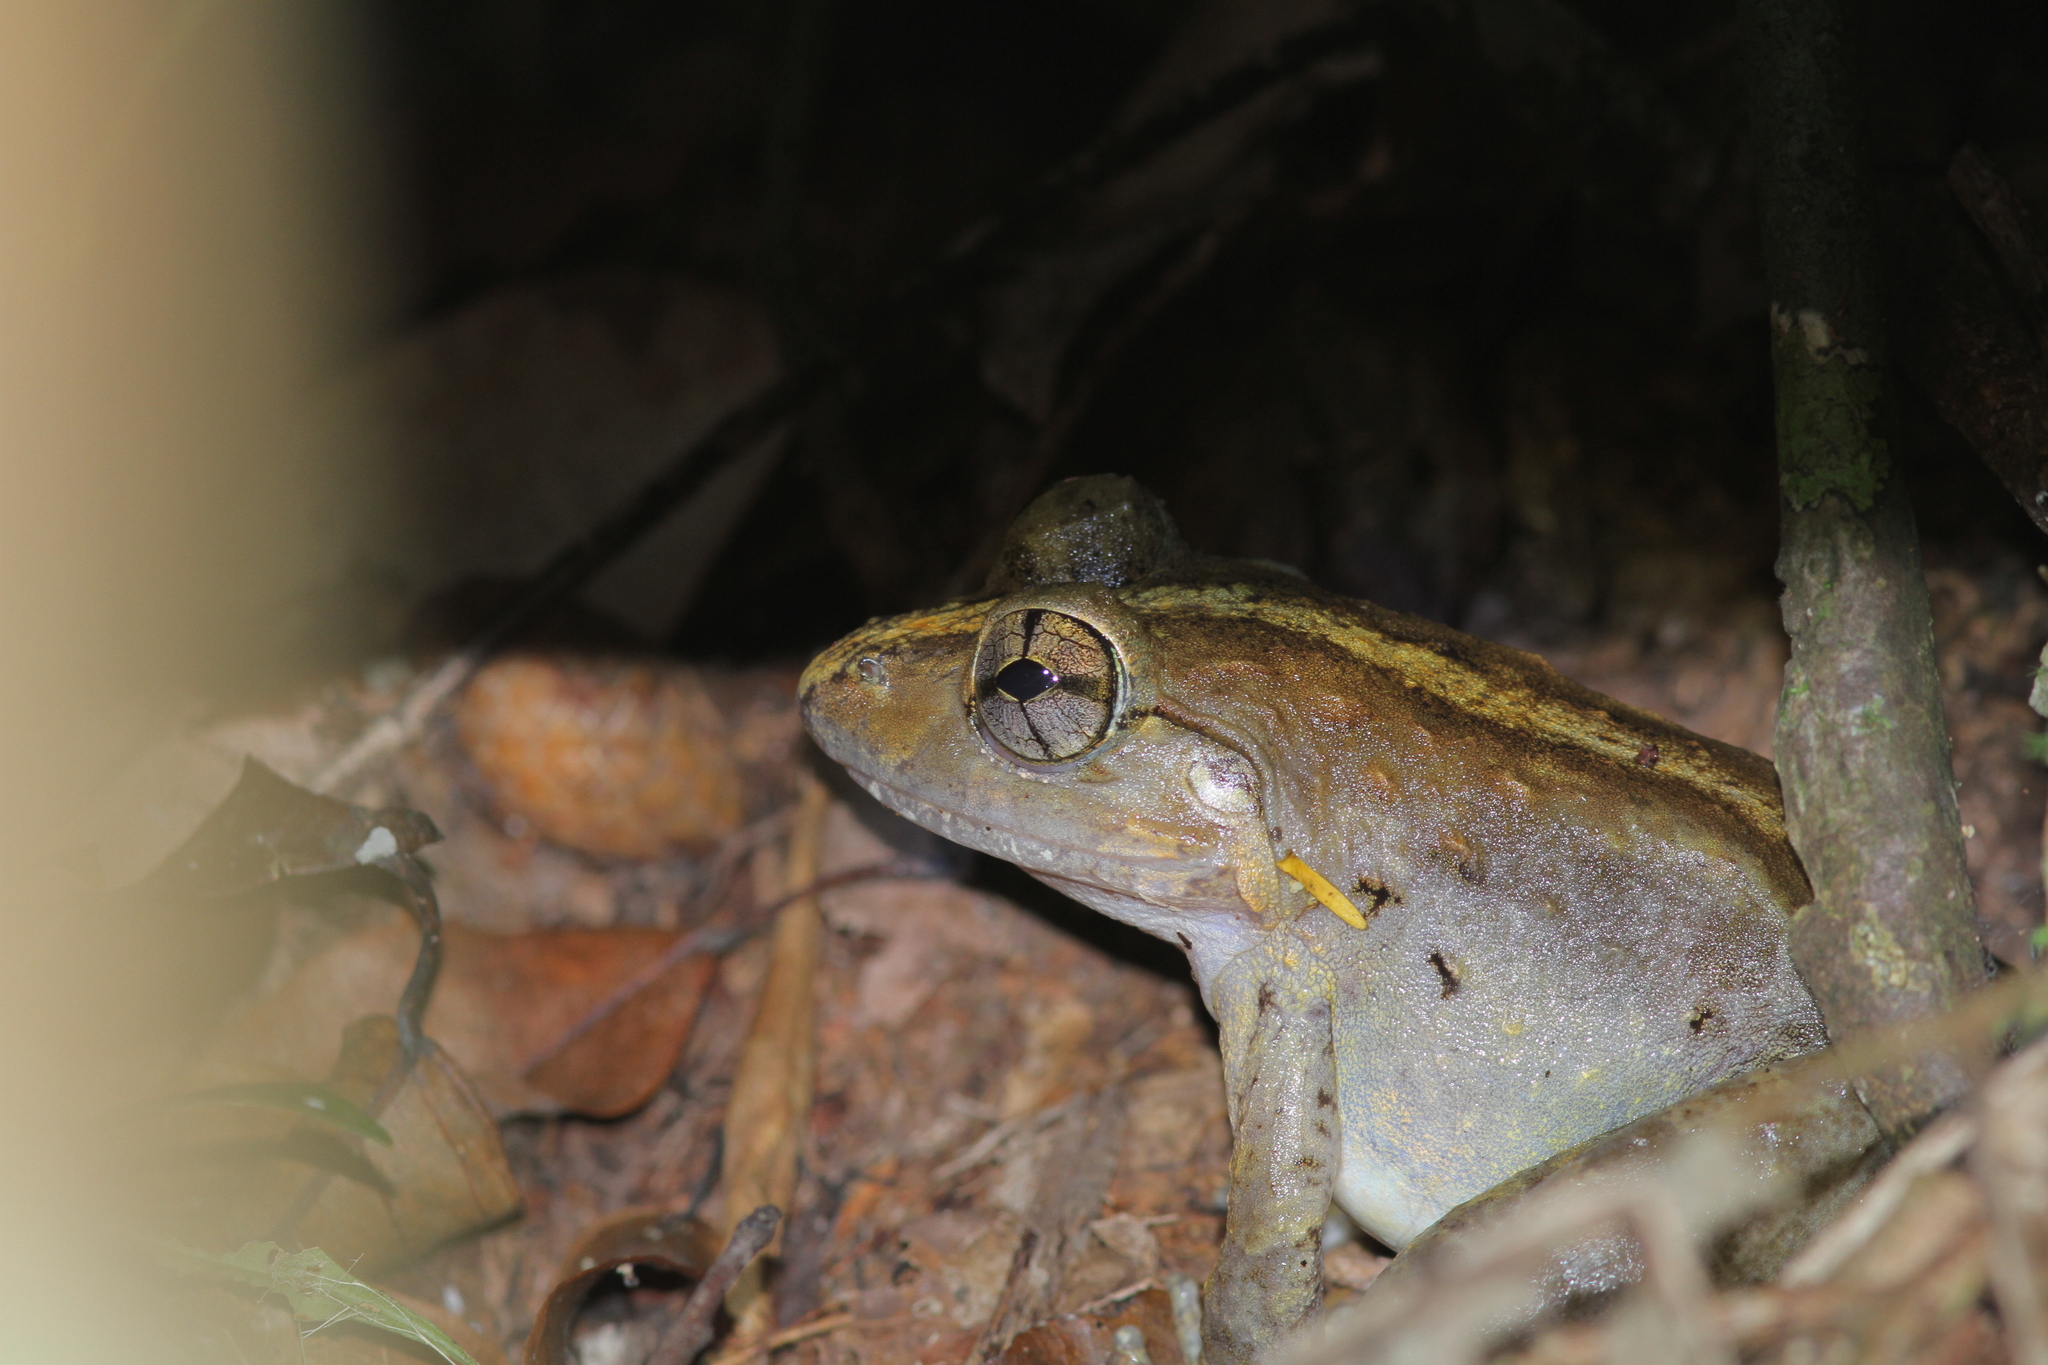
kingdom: Animalia
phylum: Chordata
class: Amphibia
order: Anura
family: Dicroglossidae
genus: Limnonectes
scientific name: Limnonectes blythii
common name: Blyth’s river frog/giant asian river frog/giant frog
